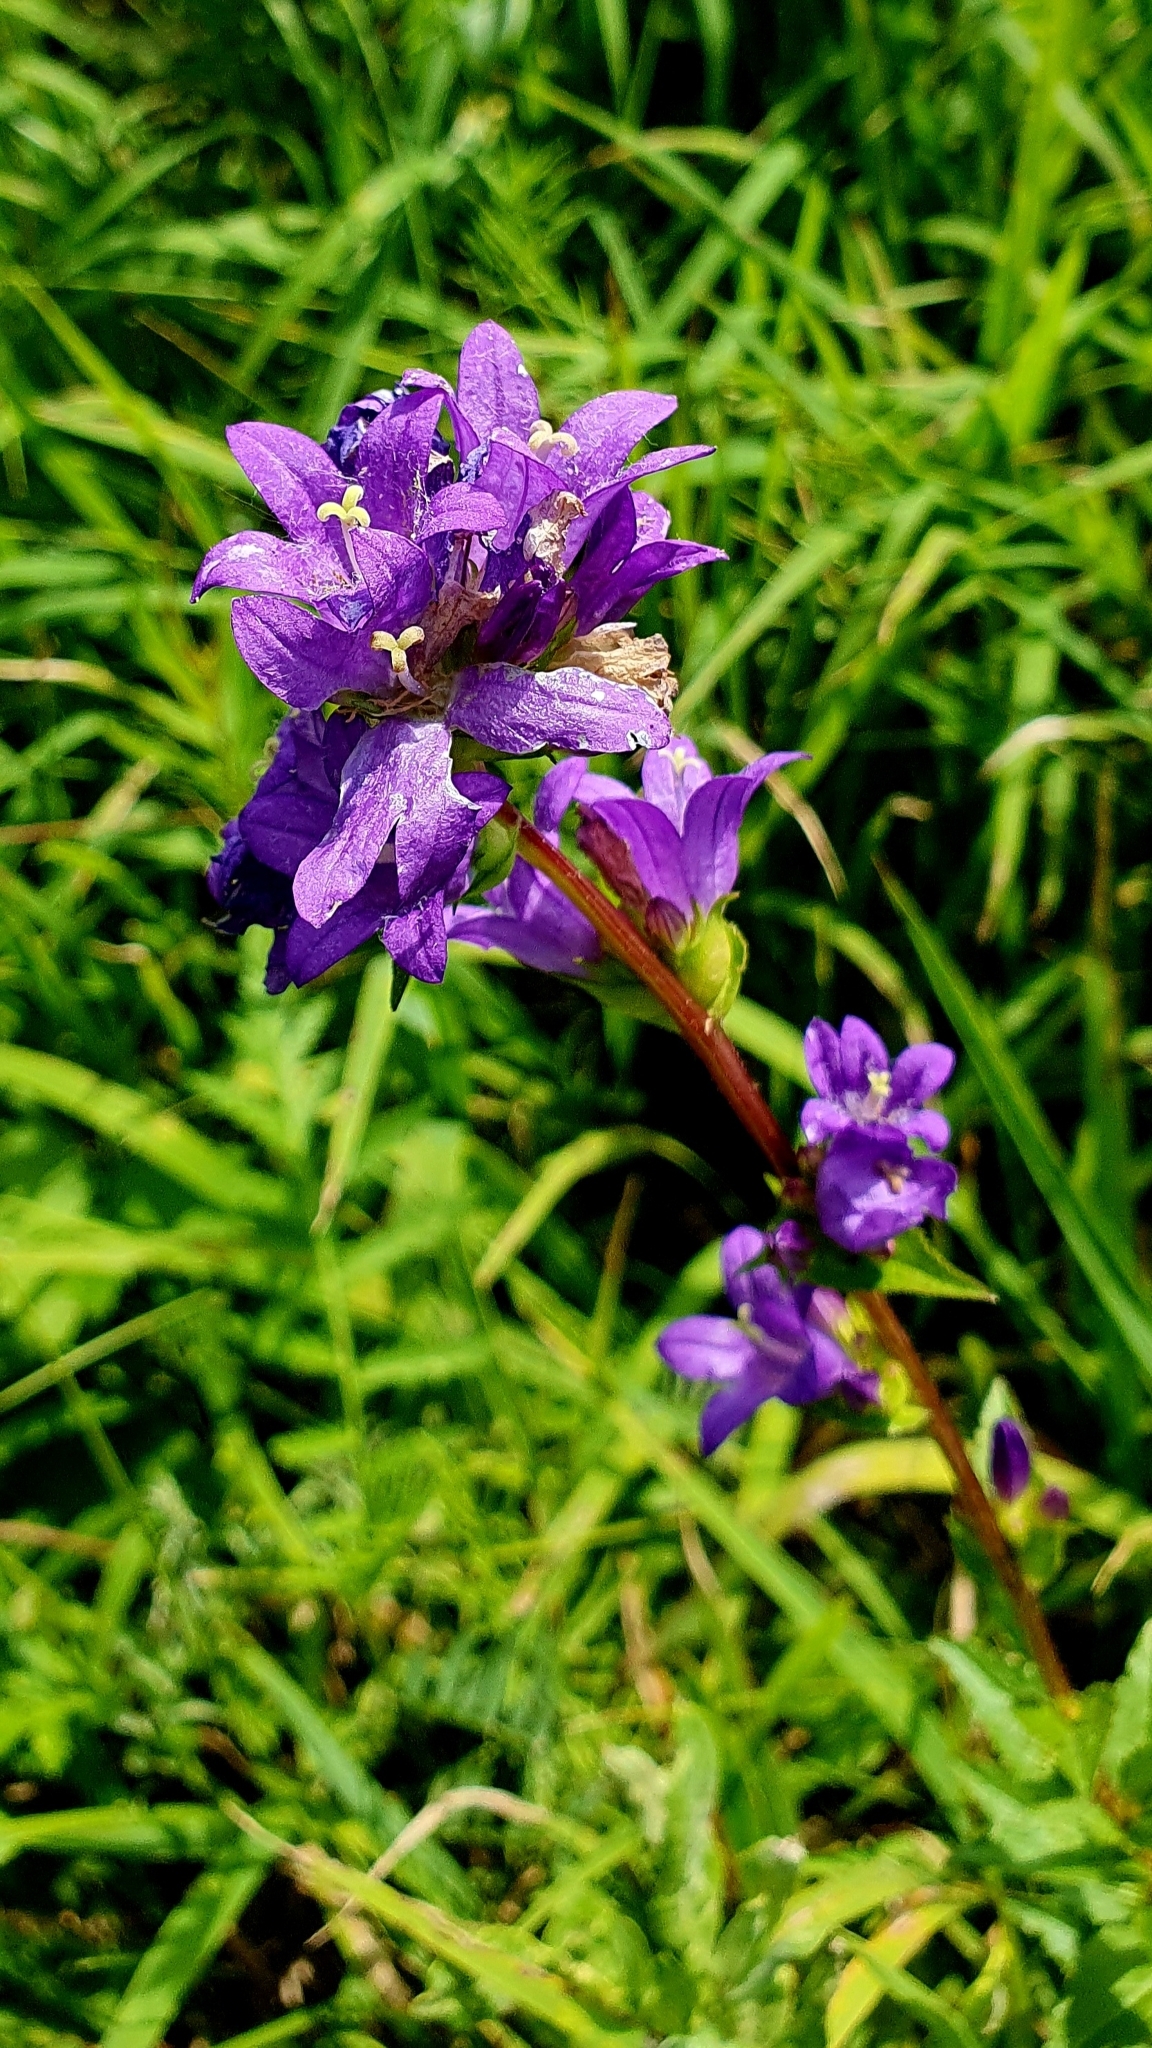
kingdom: Plantae
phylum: Tracheophyta
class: Magnoliopsida
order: Asterales
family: Campanulaceae
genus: Campanula
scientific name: Campanula glomerata
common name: Clustered bellflower
